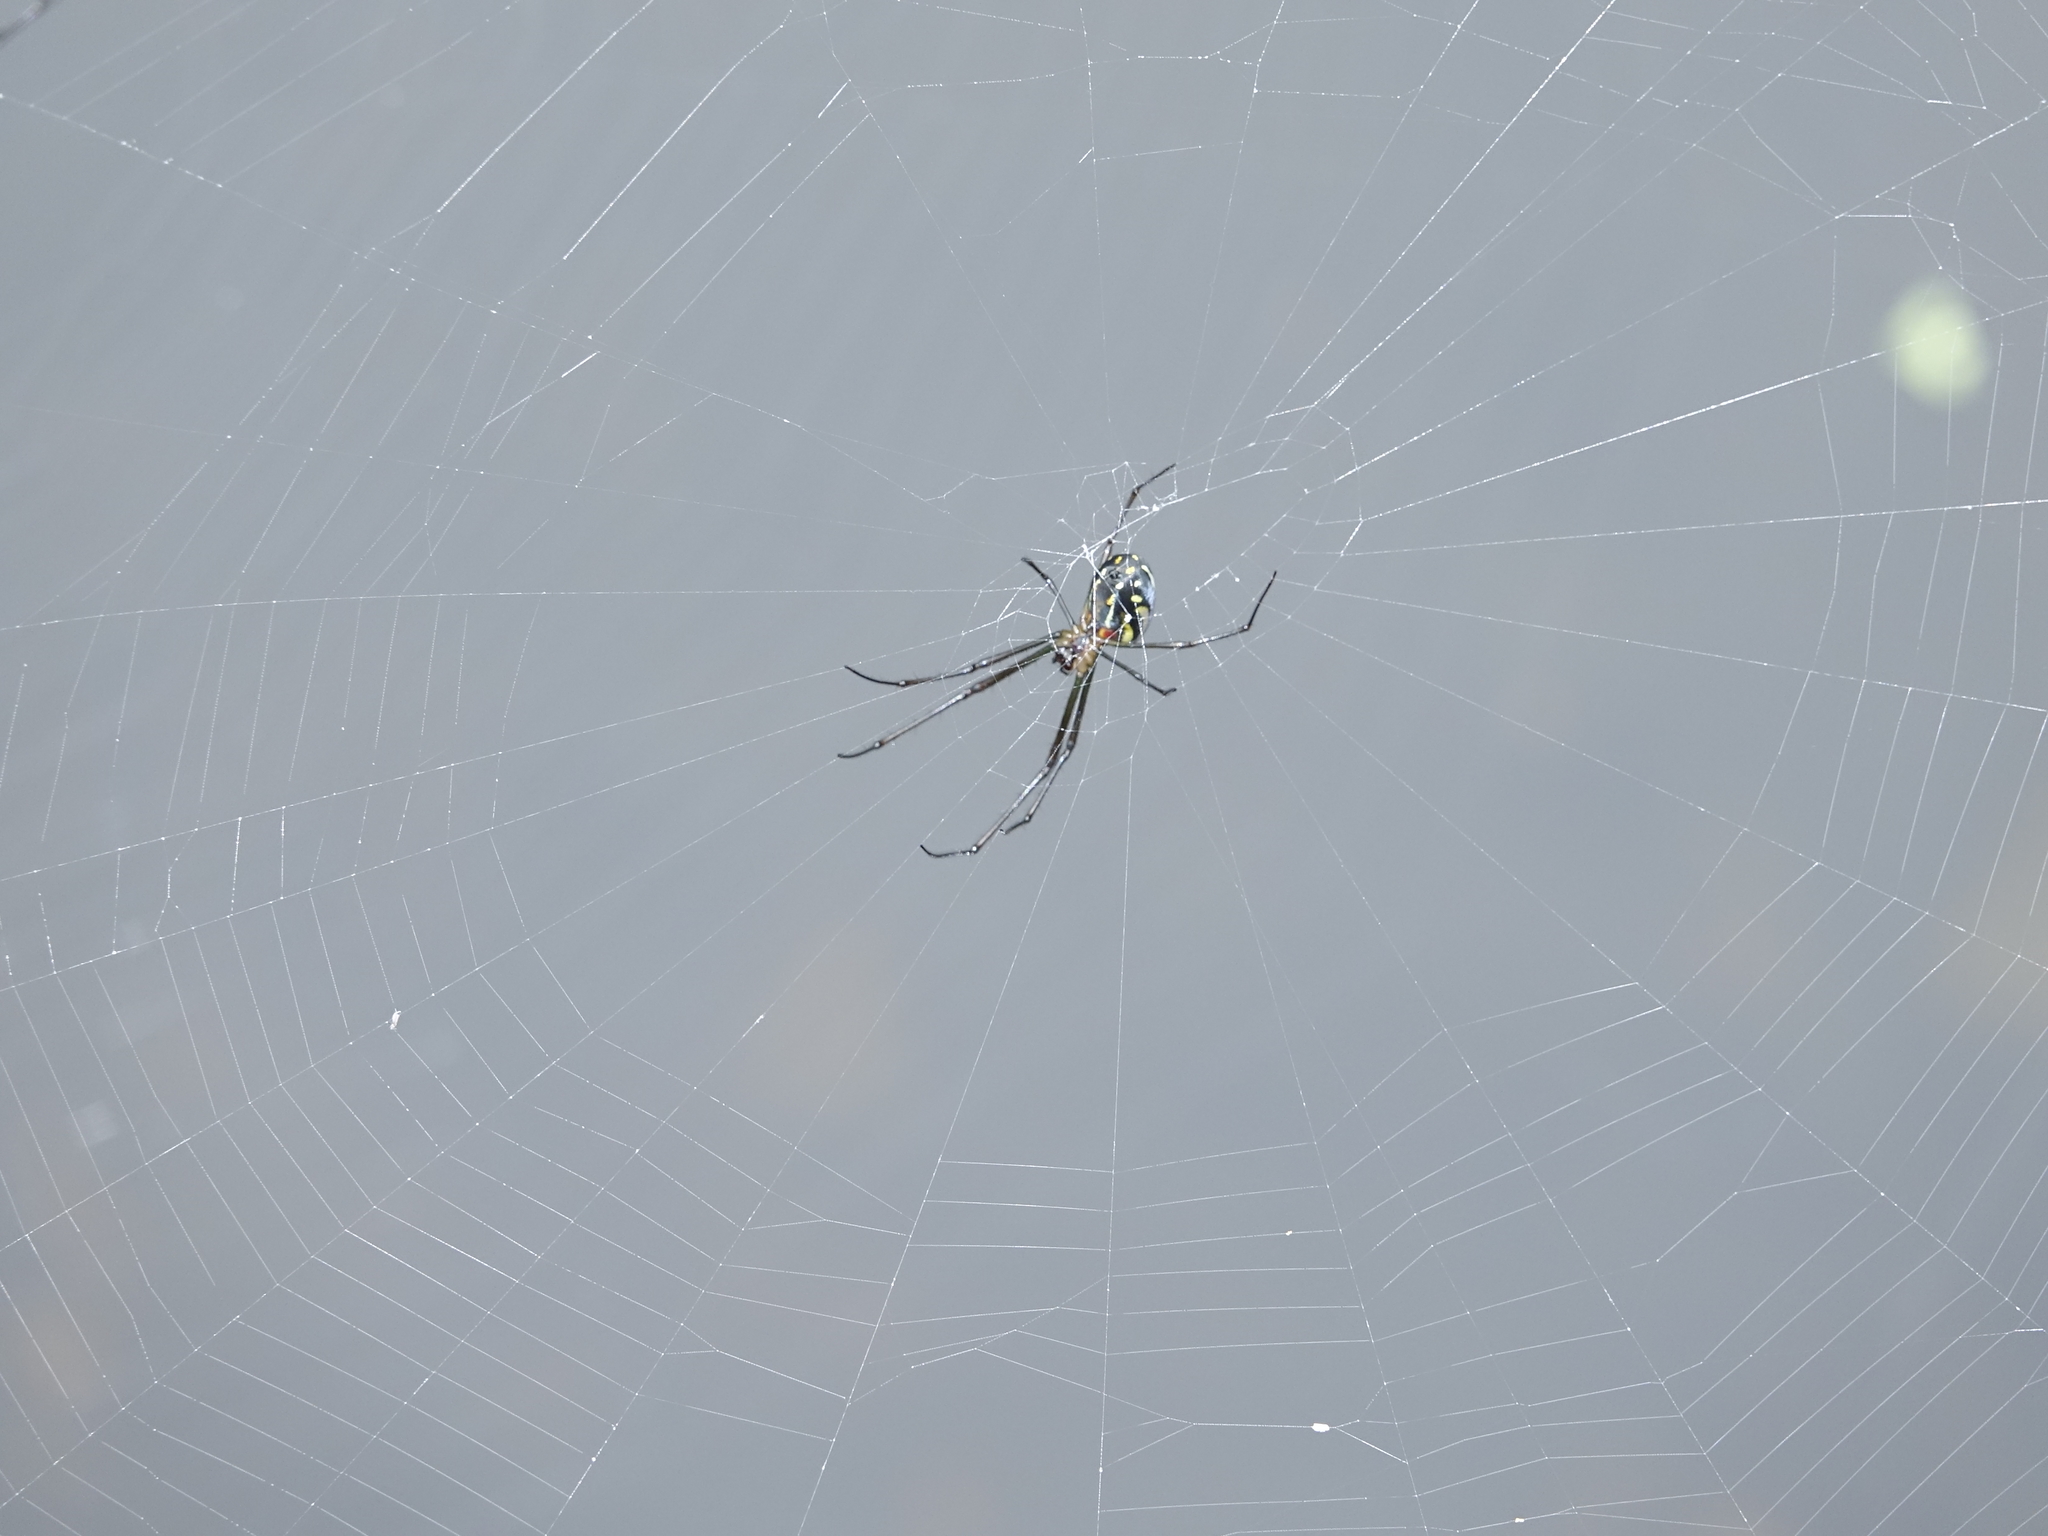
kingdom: Animalia
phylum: Arthropoda
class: Arachnida
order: Araneae
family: Tetragnathidae
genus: Leucauge
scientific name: Leucauge argyra
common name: Longjawed orb weavers
